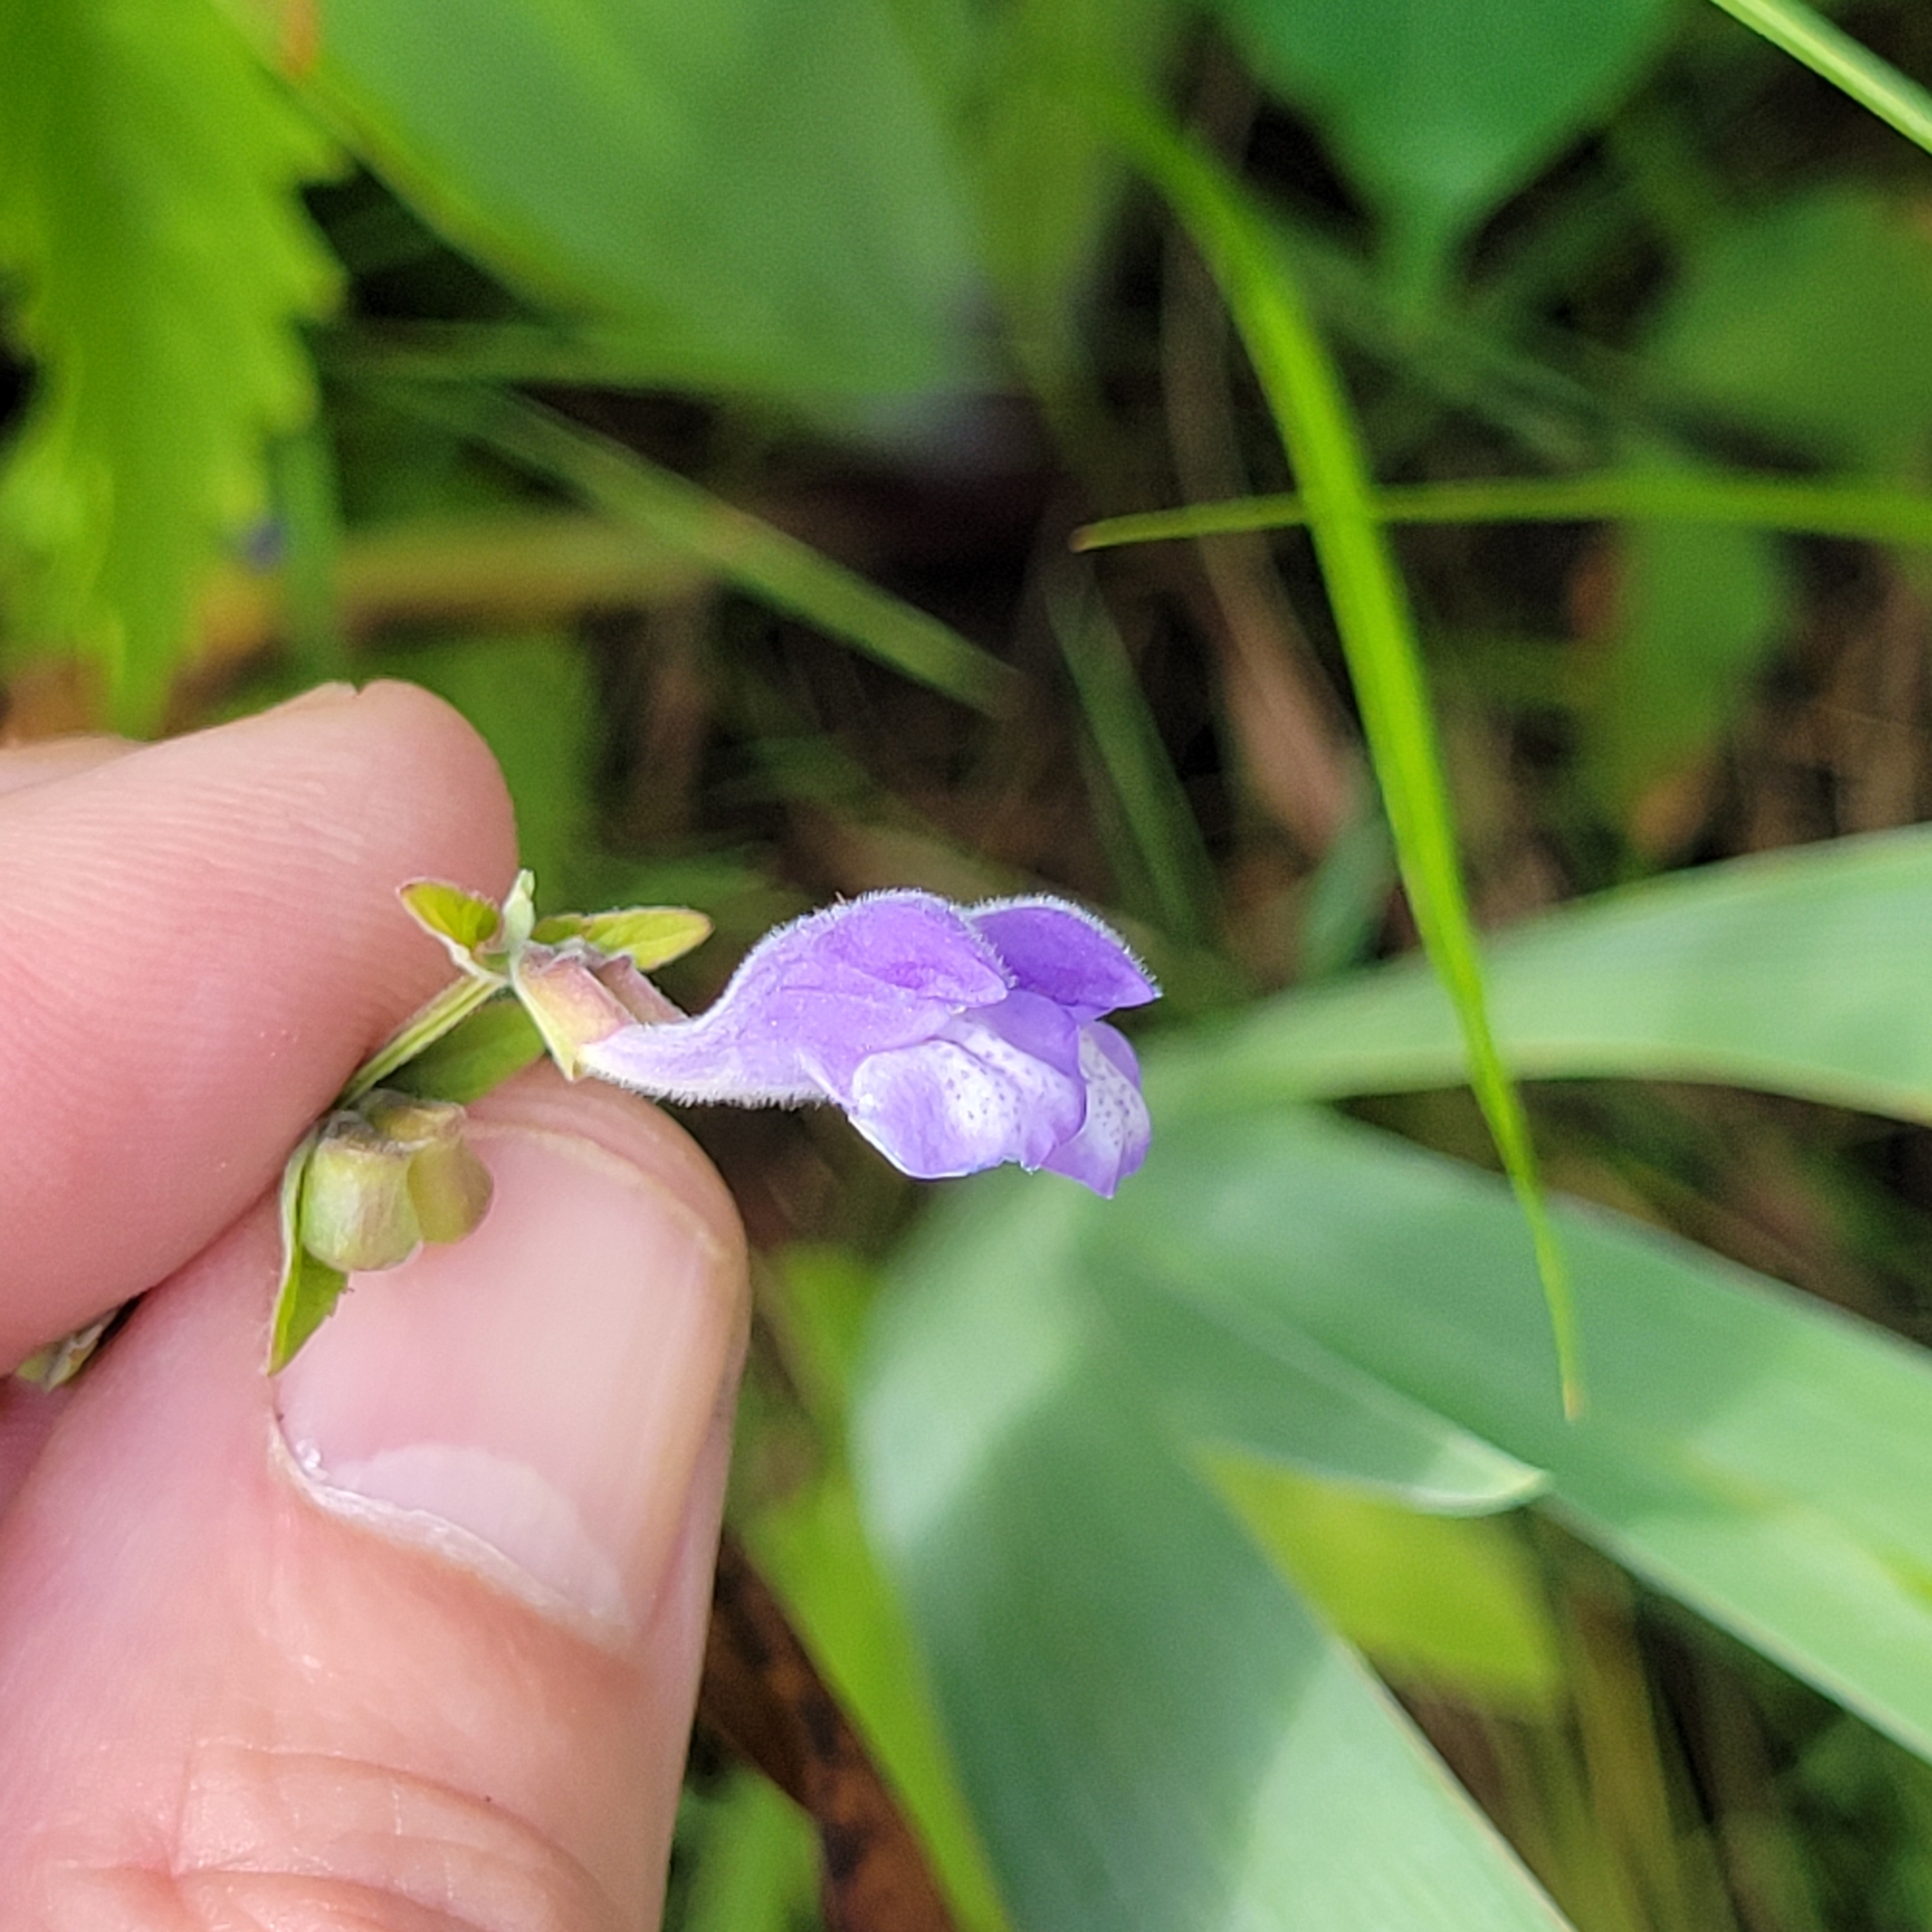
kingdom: Plantae
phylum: Tracheophyta
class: Magnoliopsida
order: Lamiales
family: Lamiaceae
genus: Scutellaria
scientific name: Scutellaria galericulata
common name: Skullcap
